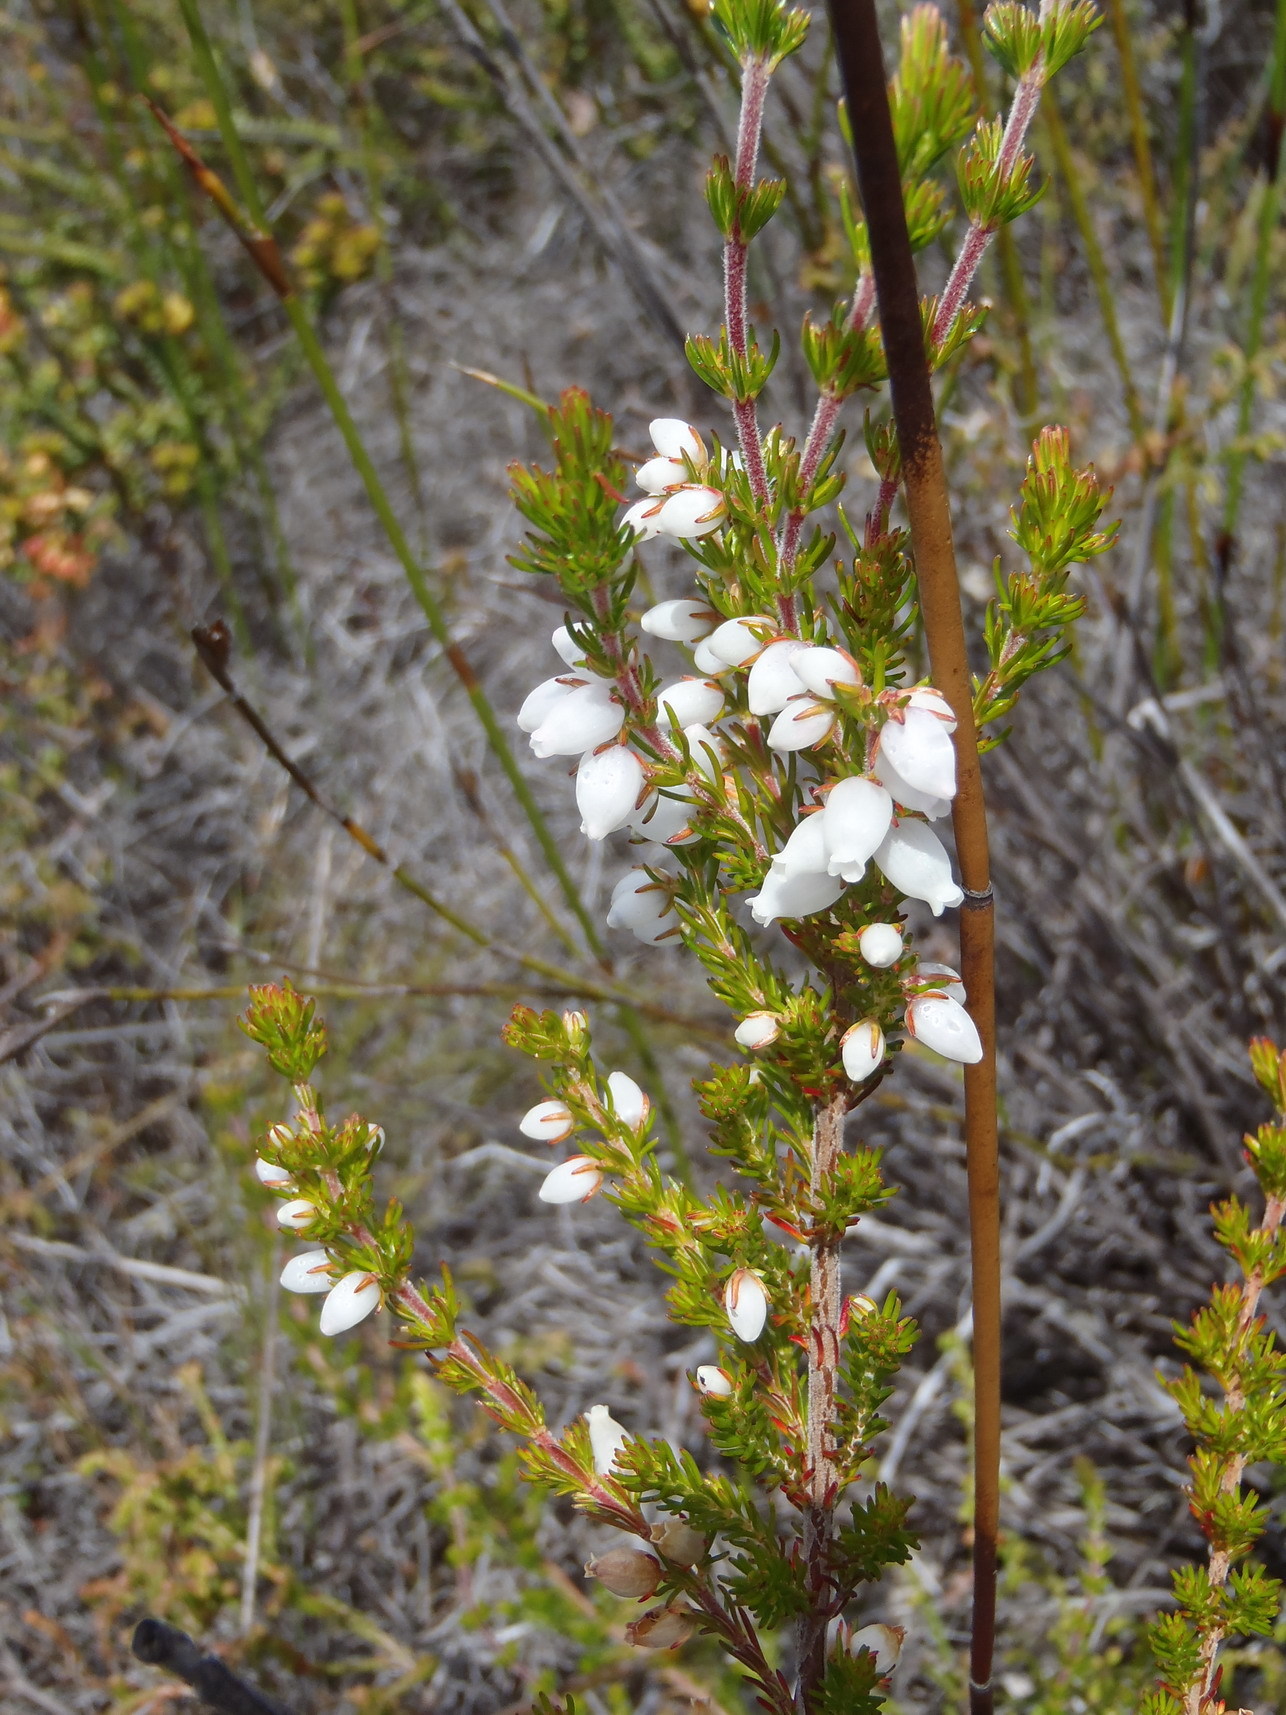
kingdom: Plantae
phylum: Tracheophyta
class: Magnoliopsida
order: Ericales
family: Ericaceae
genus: Erica
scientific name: Erica sitiens
